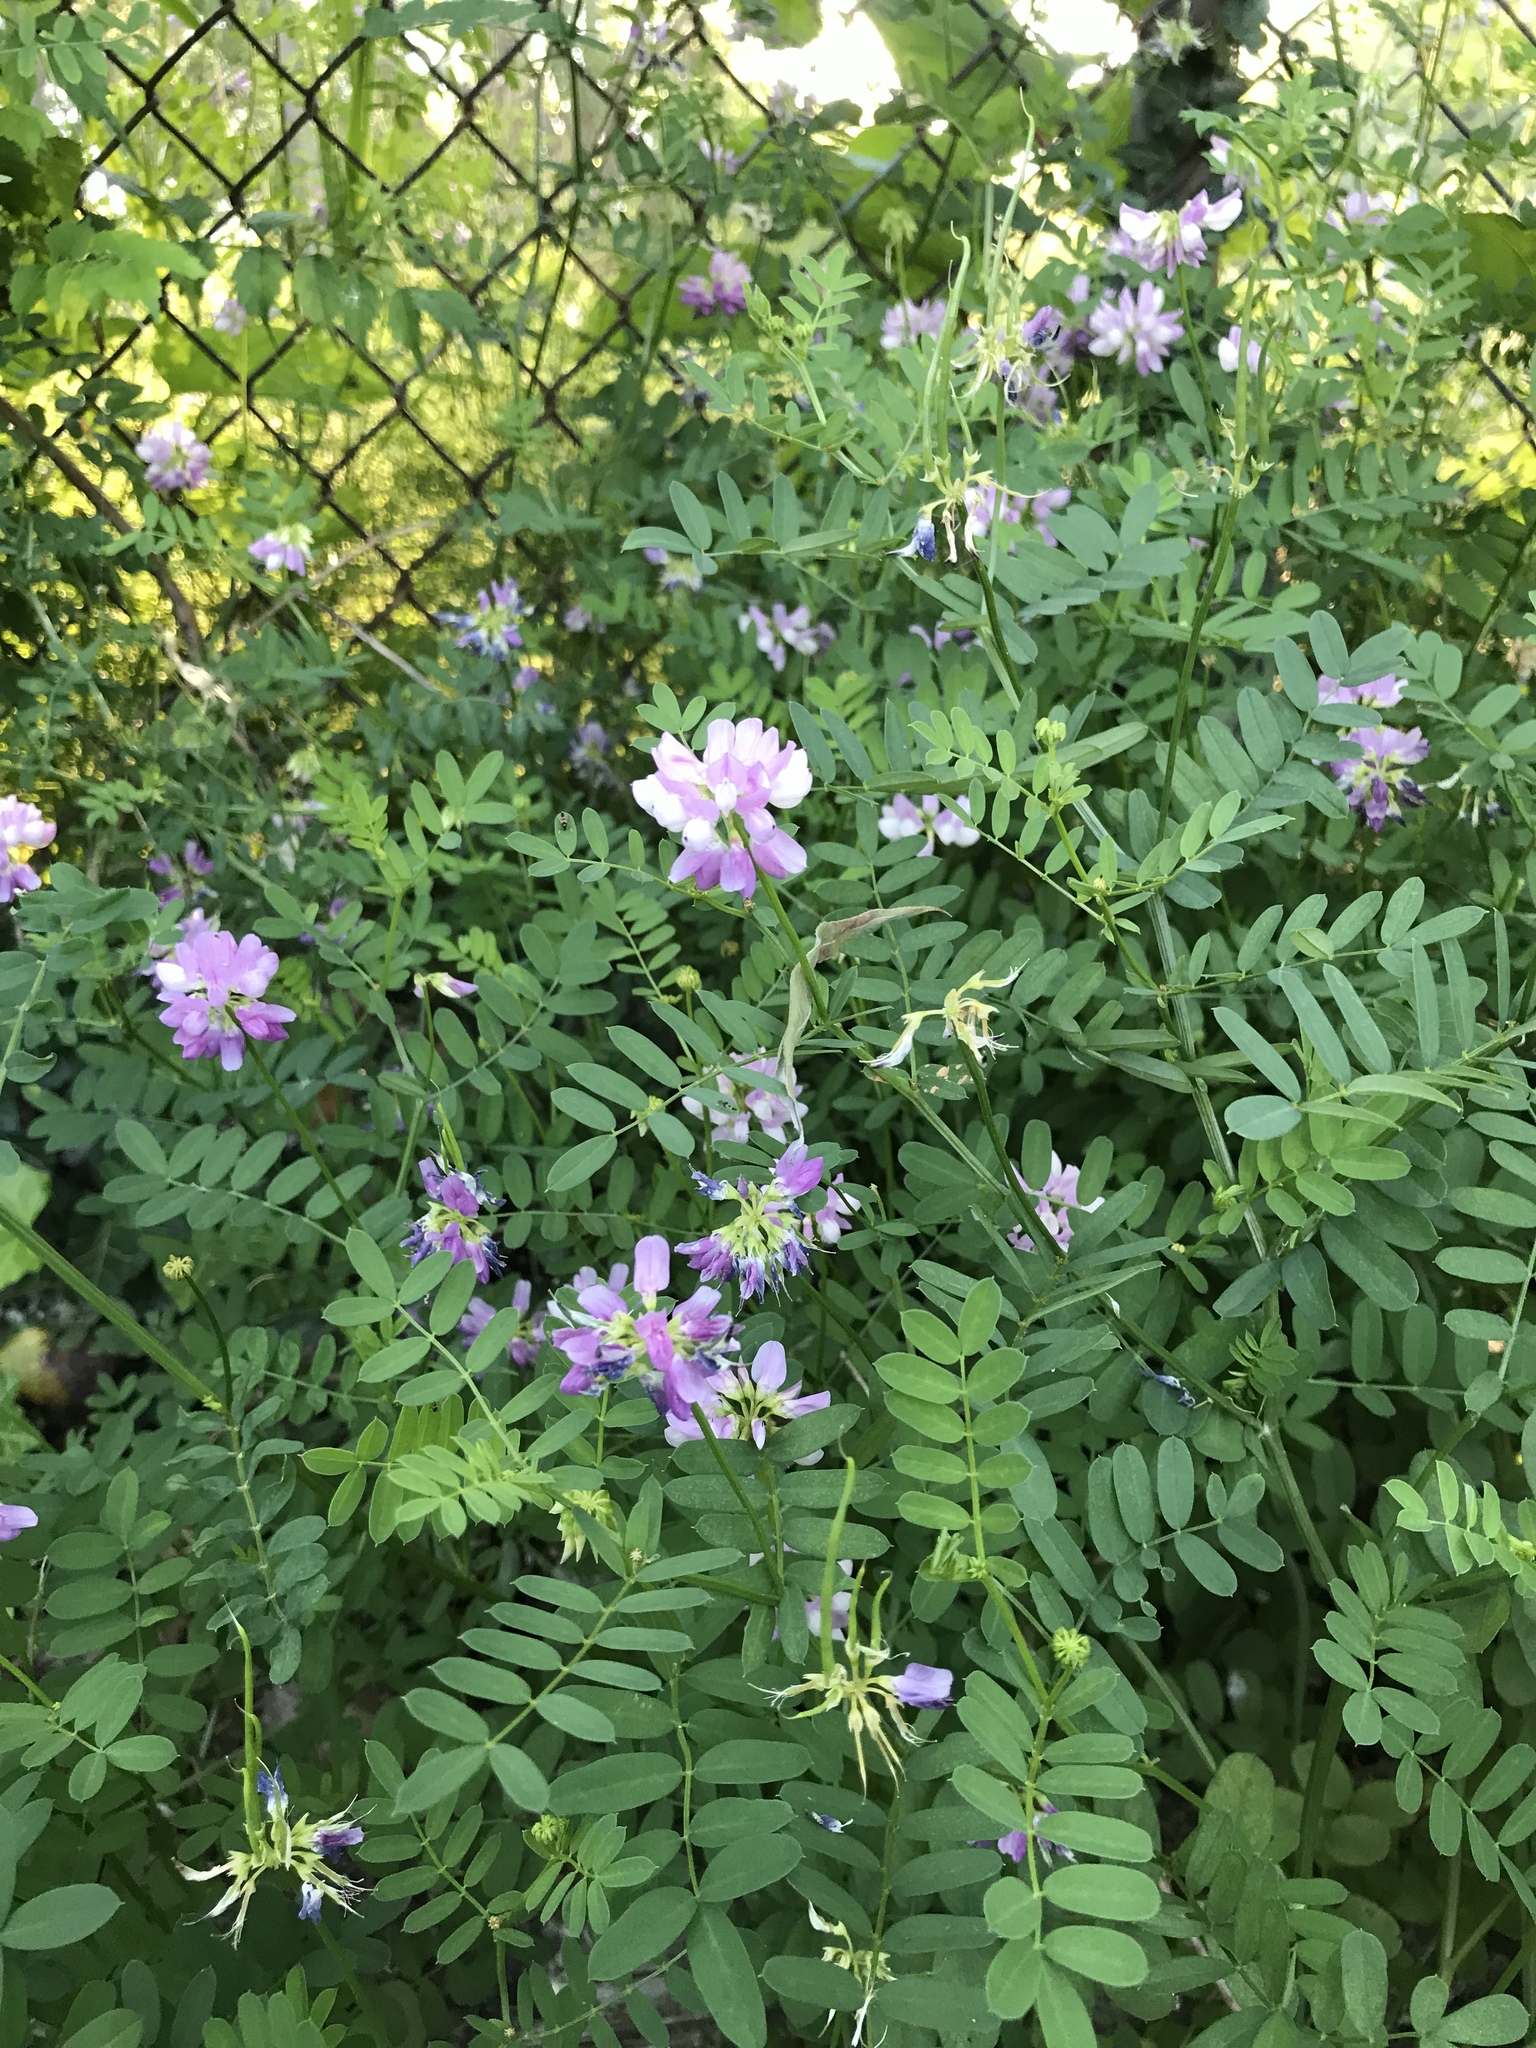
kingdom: Plantae
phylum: Tracheophyta
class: Magnoliopsida
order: Fabales
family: Fabaceae
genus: Coronilla
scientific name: Coronilla varia
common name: Crownvetch
